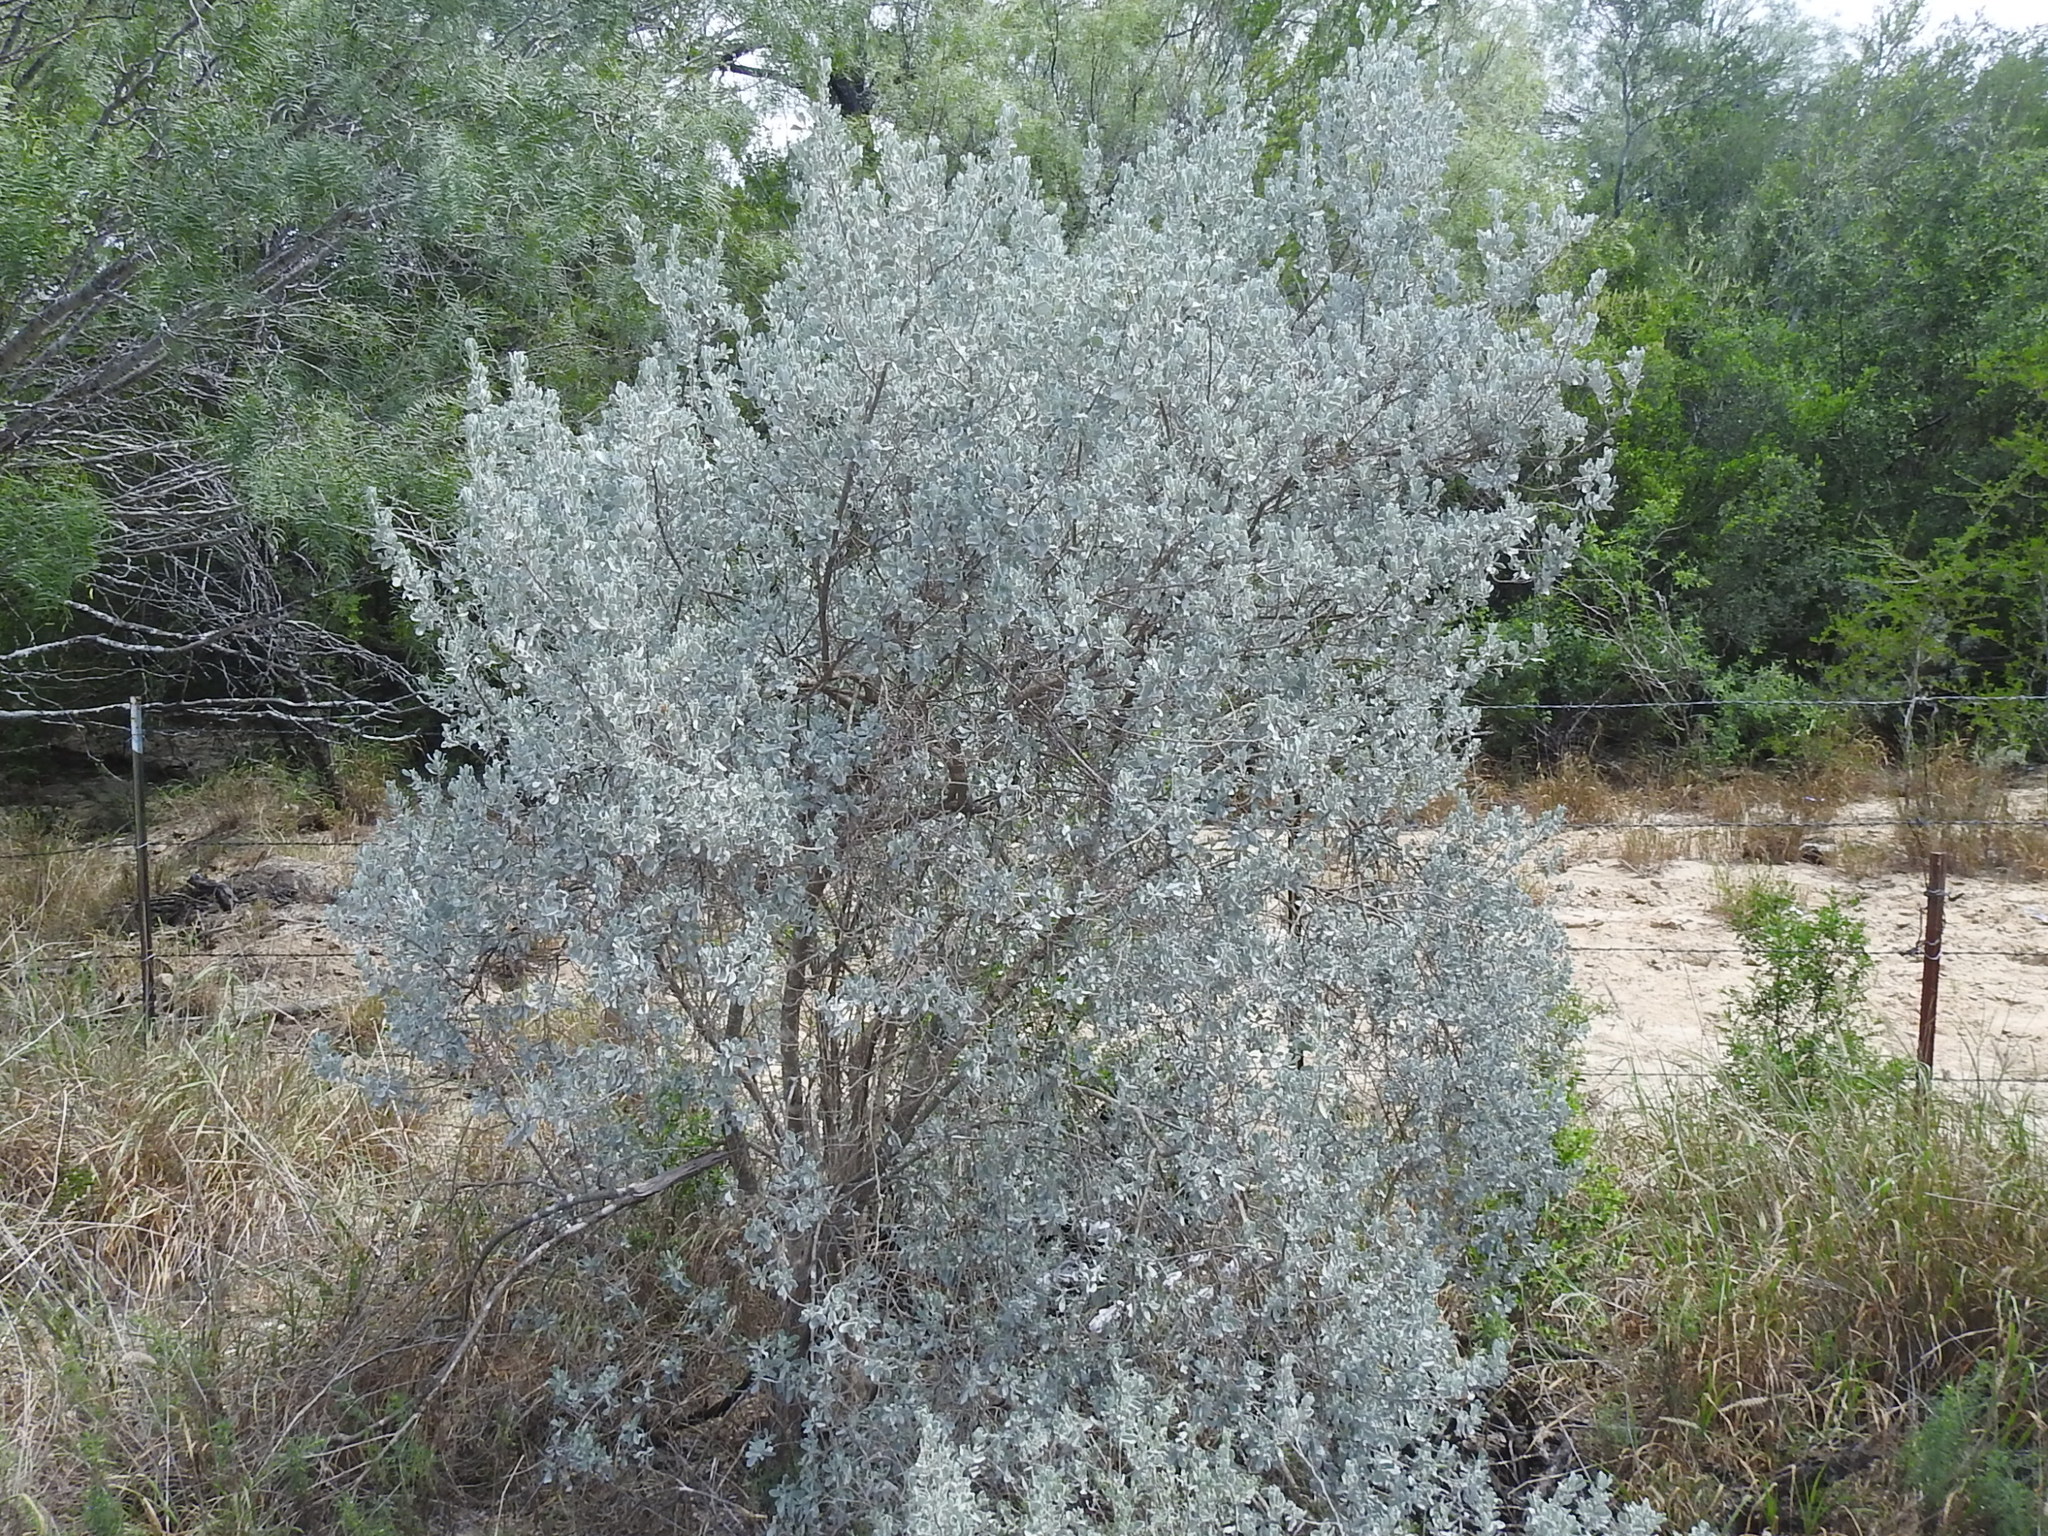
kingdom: Plantae
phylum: Tracheophyta
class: Magnoliopsida
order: Lamiales
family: Scrophulariaceae
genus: Leucophyllum
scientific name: Leucophyllum frutescens
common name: Texas silverleaf
